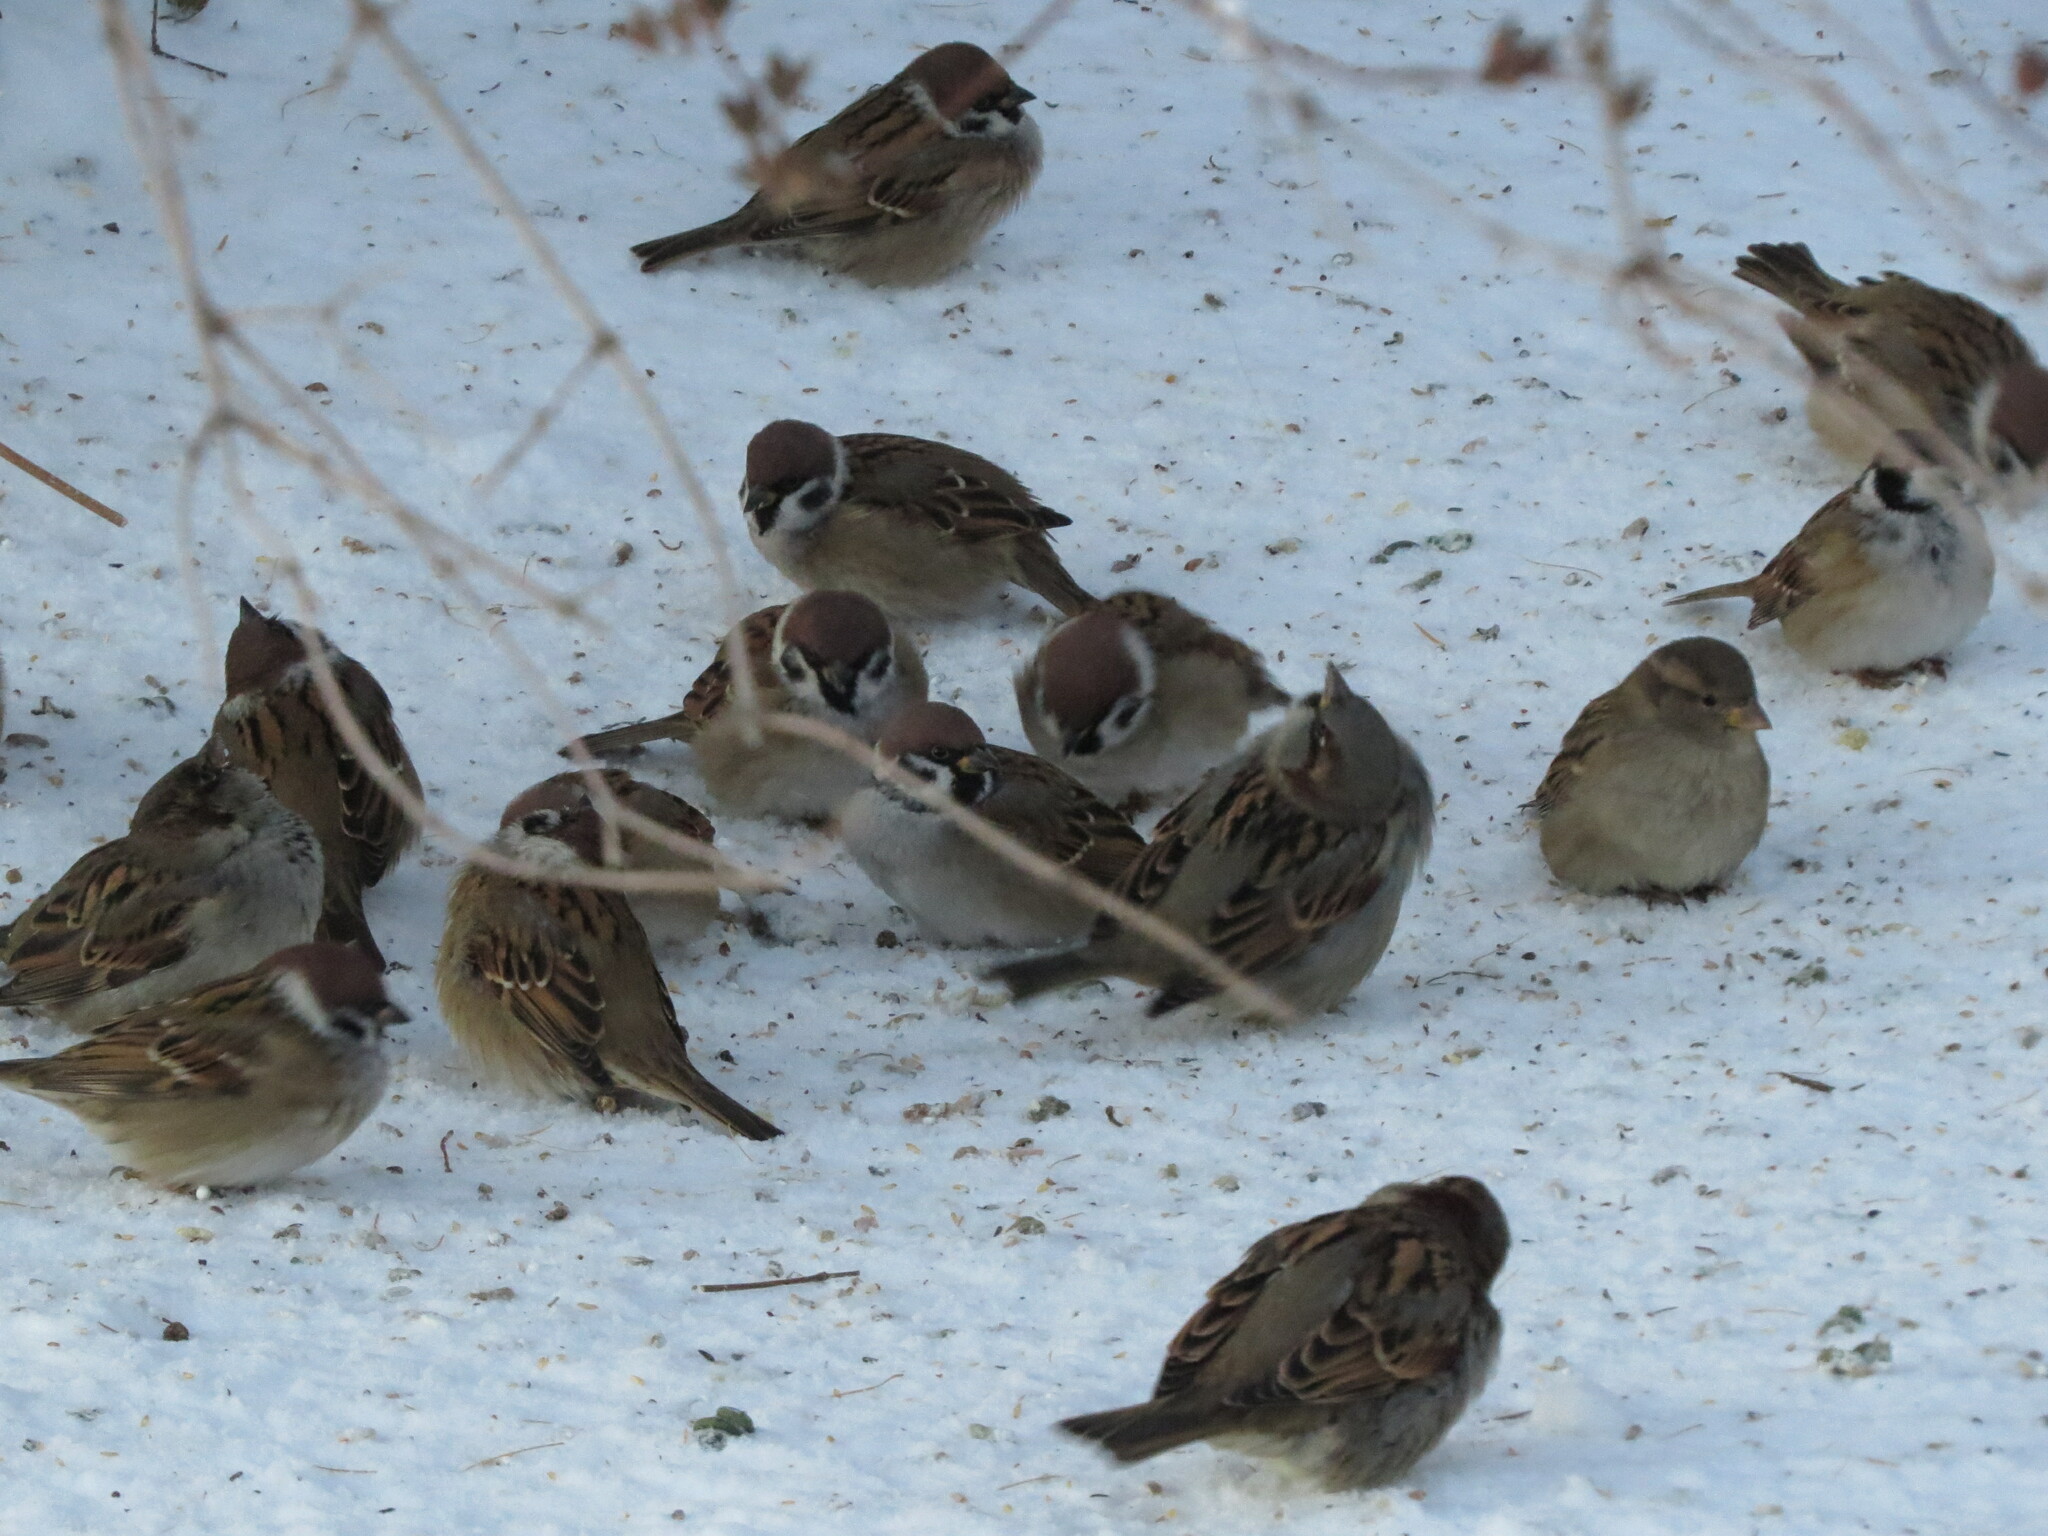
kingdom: Animalia
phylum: Chordata
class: Aves
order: Passeriformes
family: Passeridae
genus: Passer
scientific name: Passer montanus
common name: Eurasian tree sparrow
